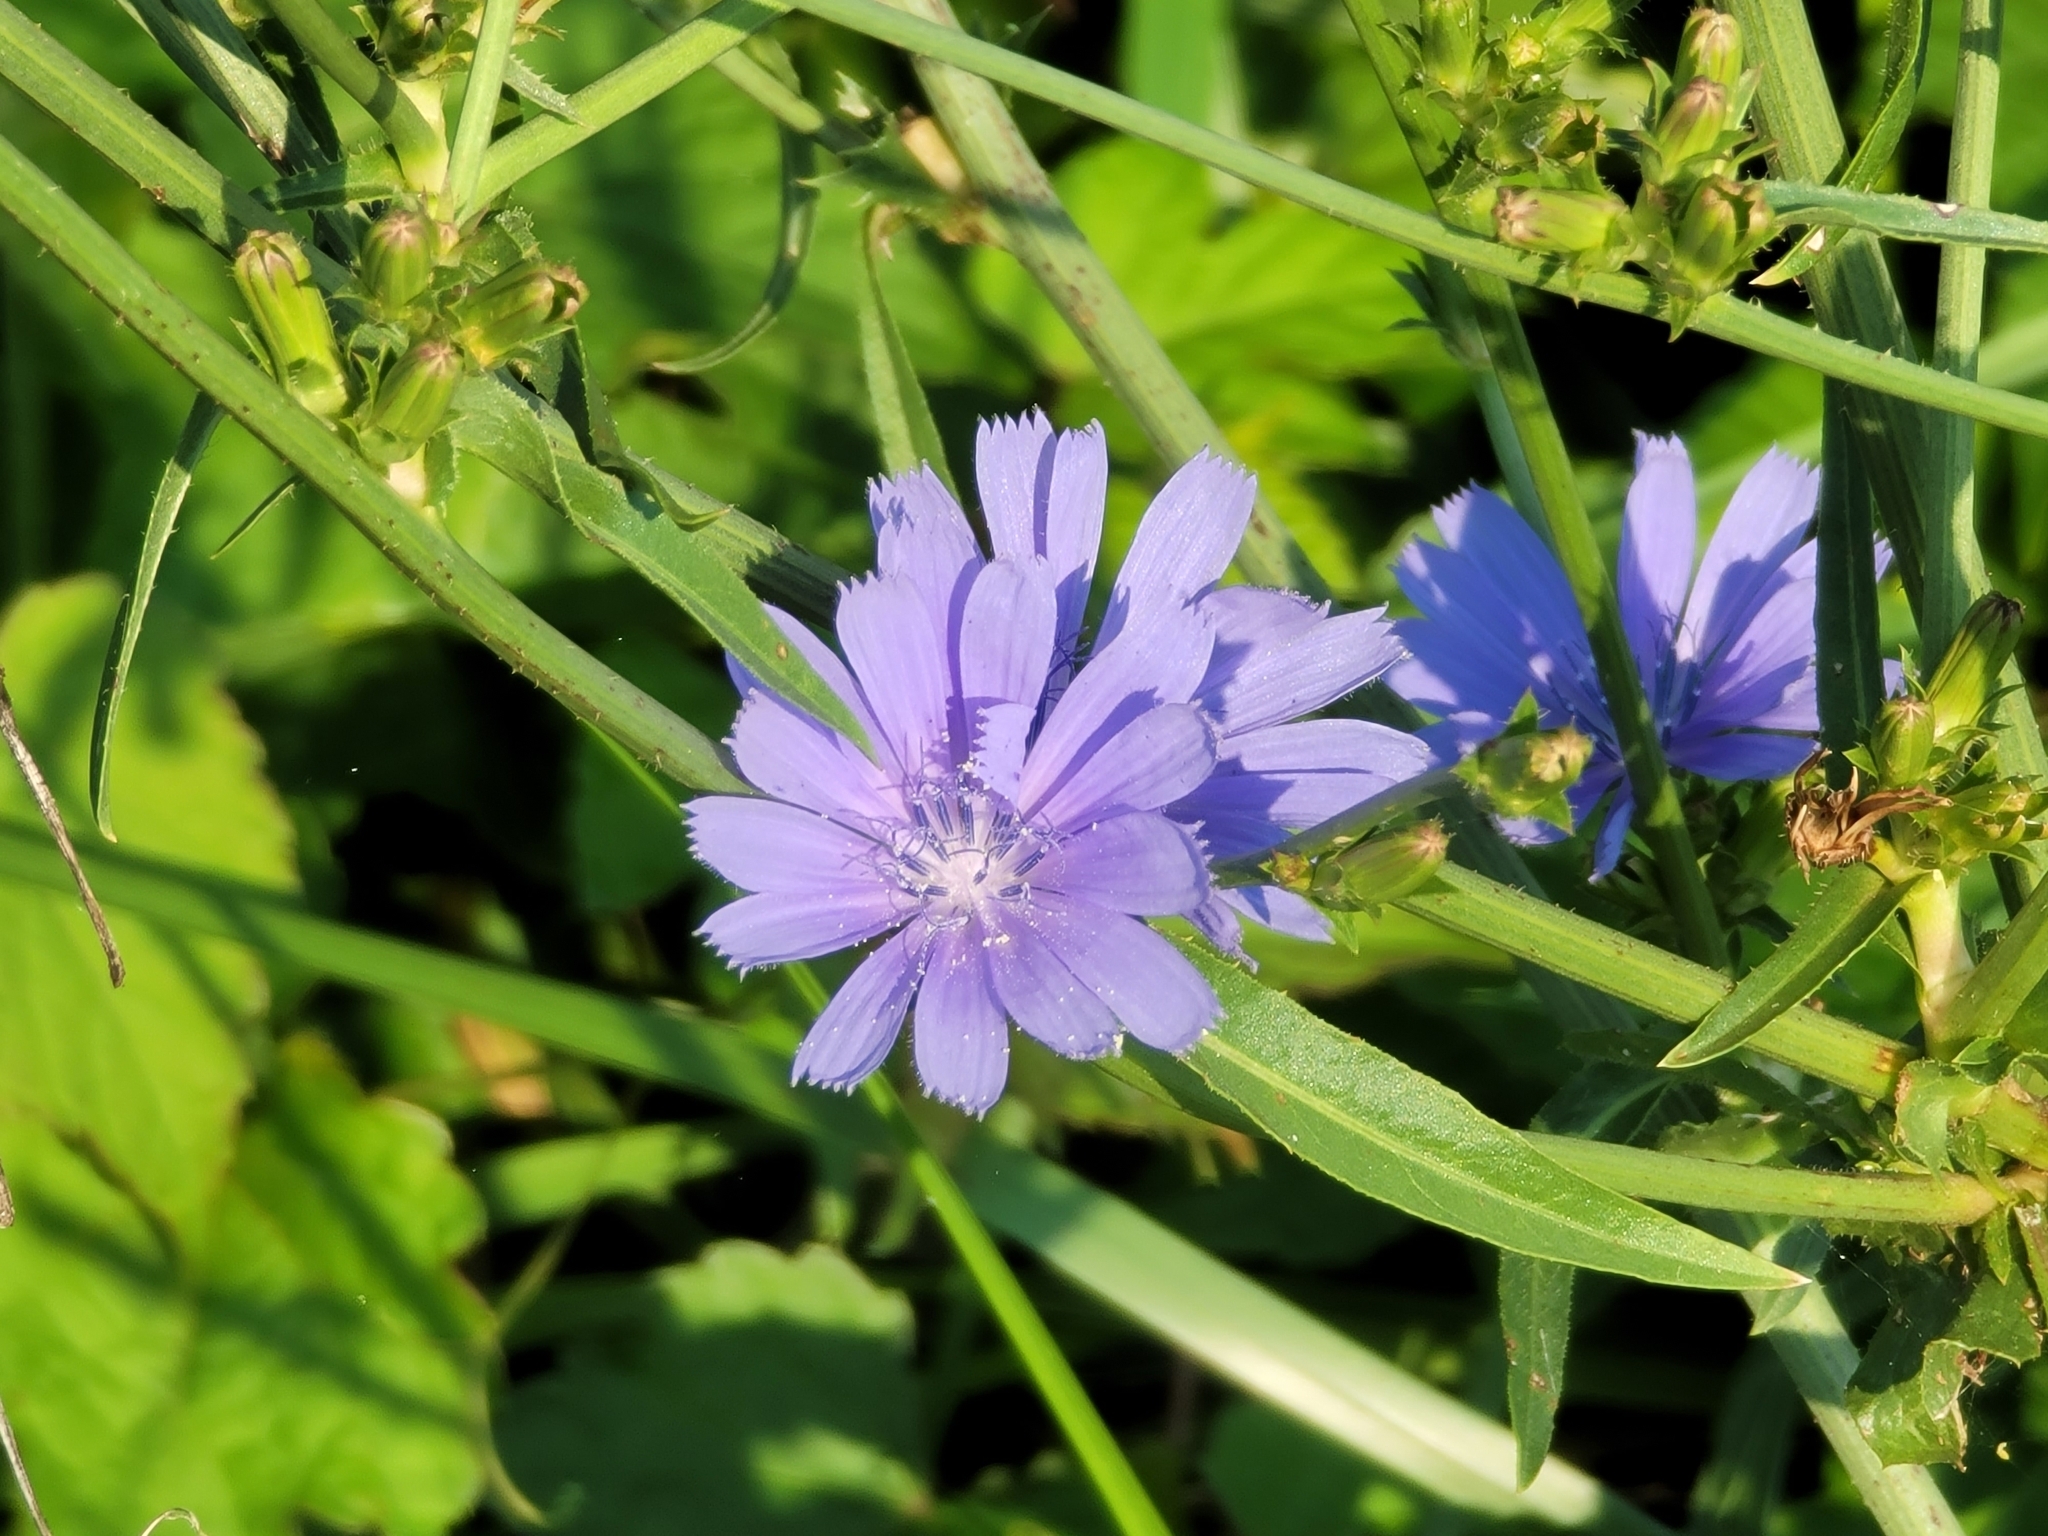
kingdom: Plantae
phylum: Tracheophyta
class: Magnoliopsida
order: Asterales
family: Asteraceae
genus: Cichorium
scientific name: Cichorium intybus
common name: Chicory
